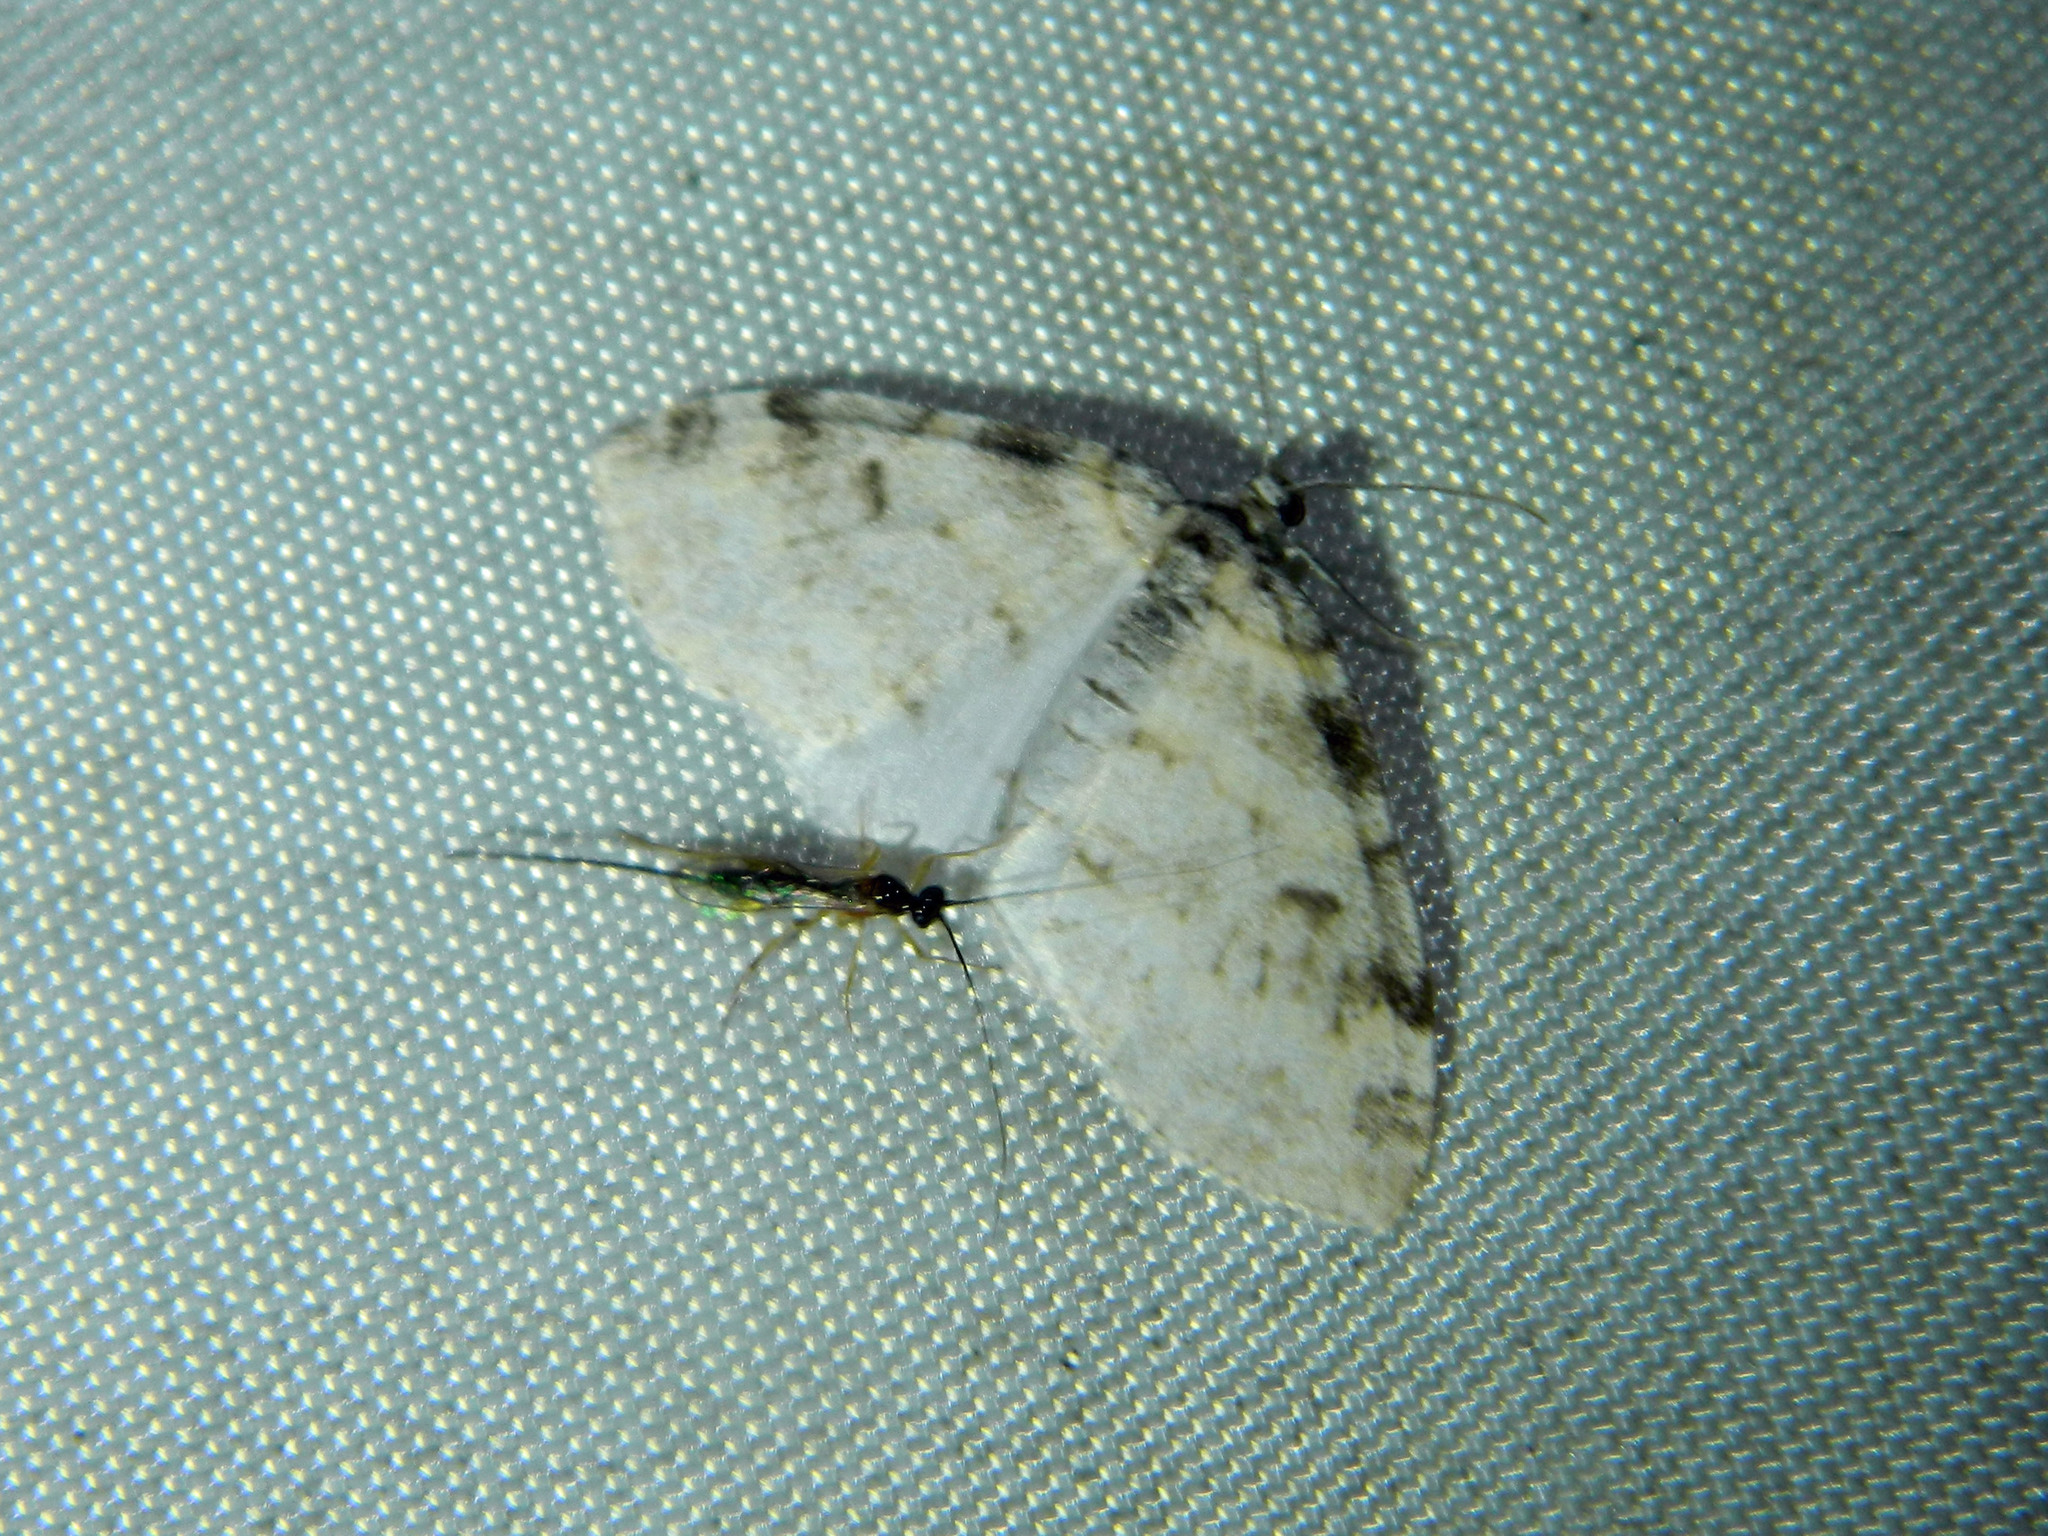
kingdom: Animalia
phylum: Arthropoda
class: Insecta
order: Lepidoptera
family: Geometridae
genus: Lobophora
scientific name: Lobophora nivigerata
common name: Powdered bigwing
